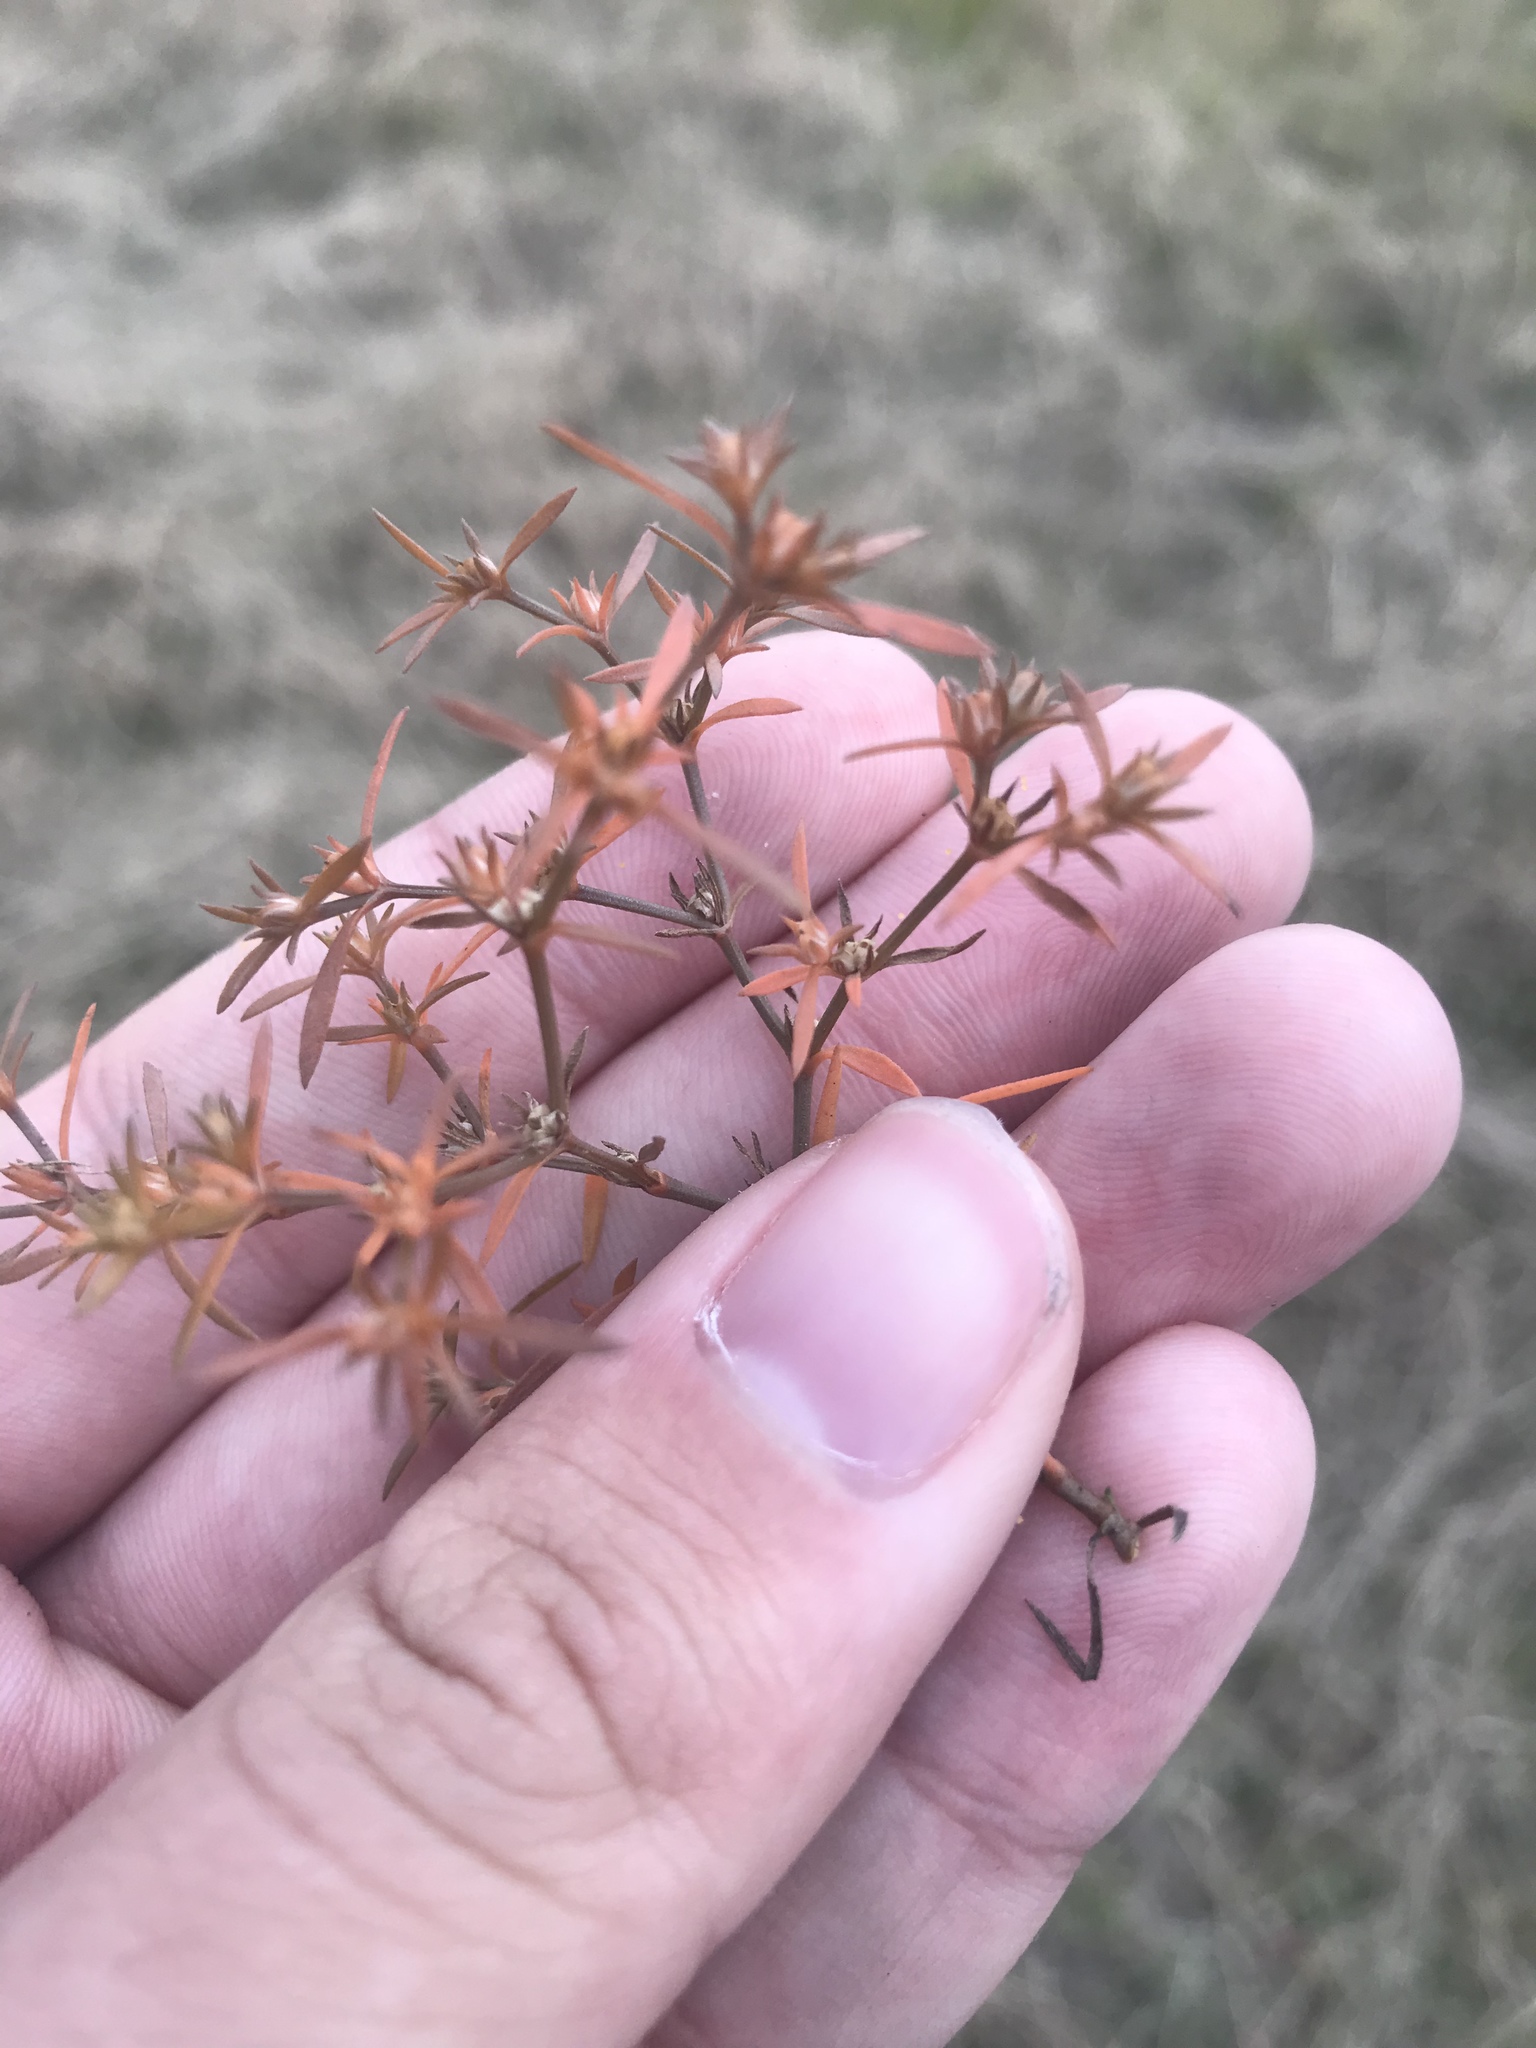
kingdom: Plantae
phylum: Tracheophyta
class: Magnoliopsida
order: Lamiales
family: Tetrachondraceae
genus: Polypremum
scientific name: Polypremum procumbens
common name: Juniper-leaf
